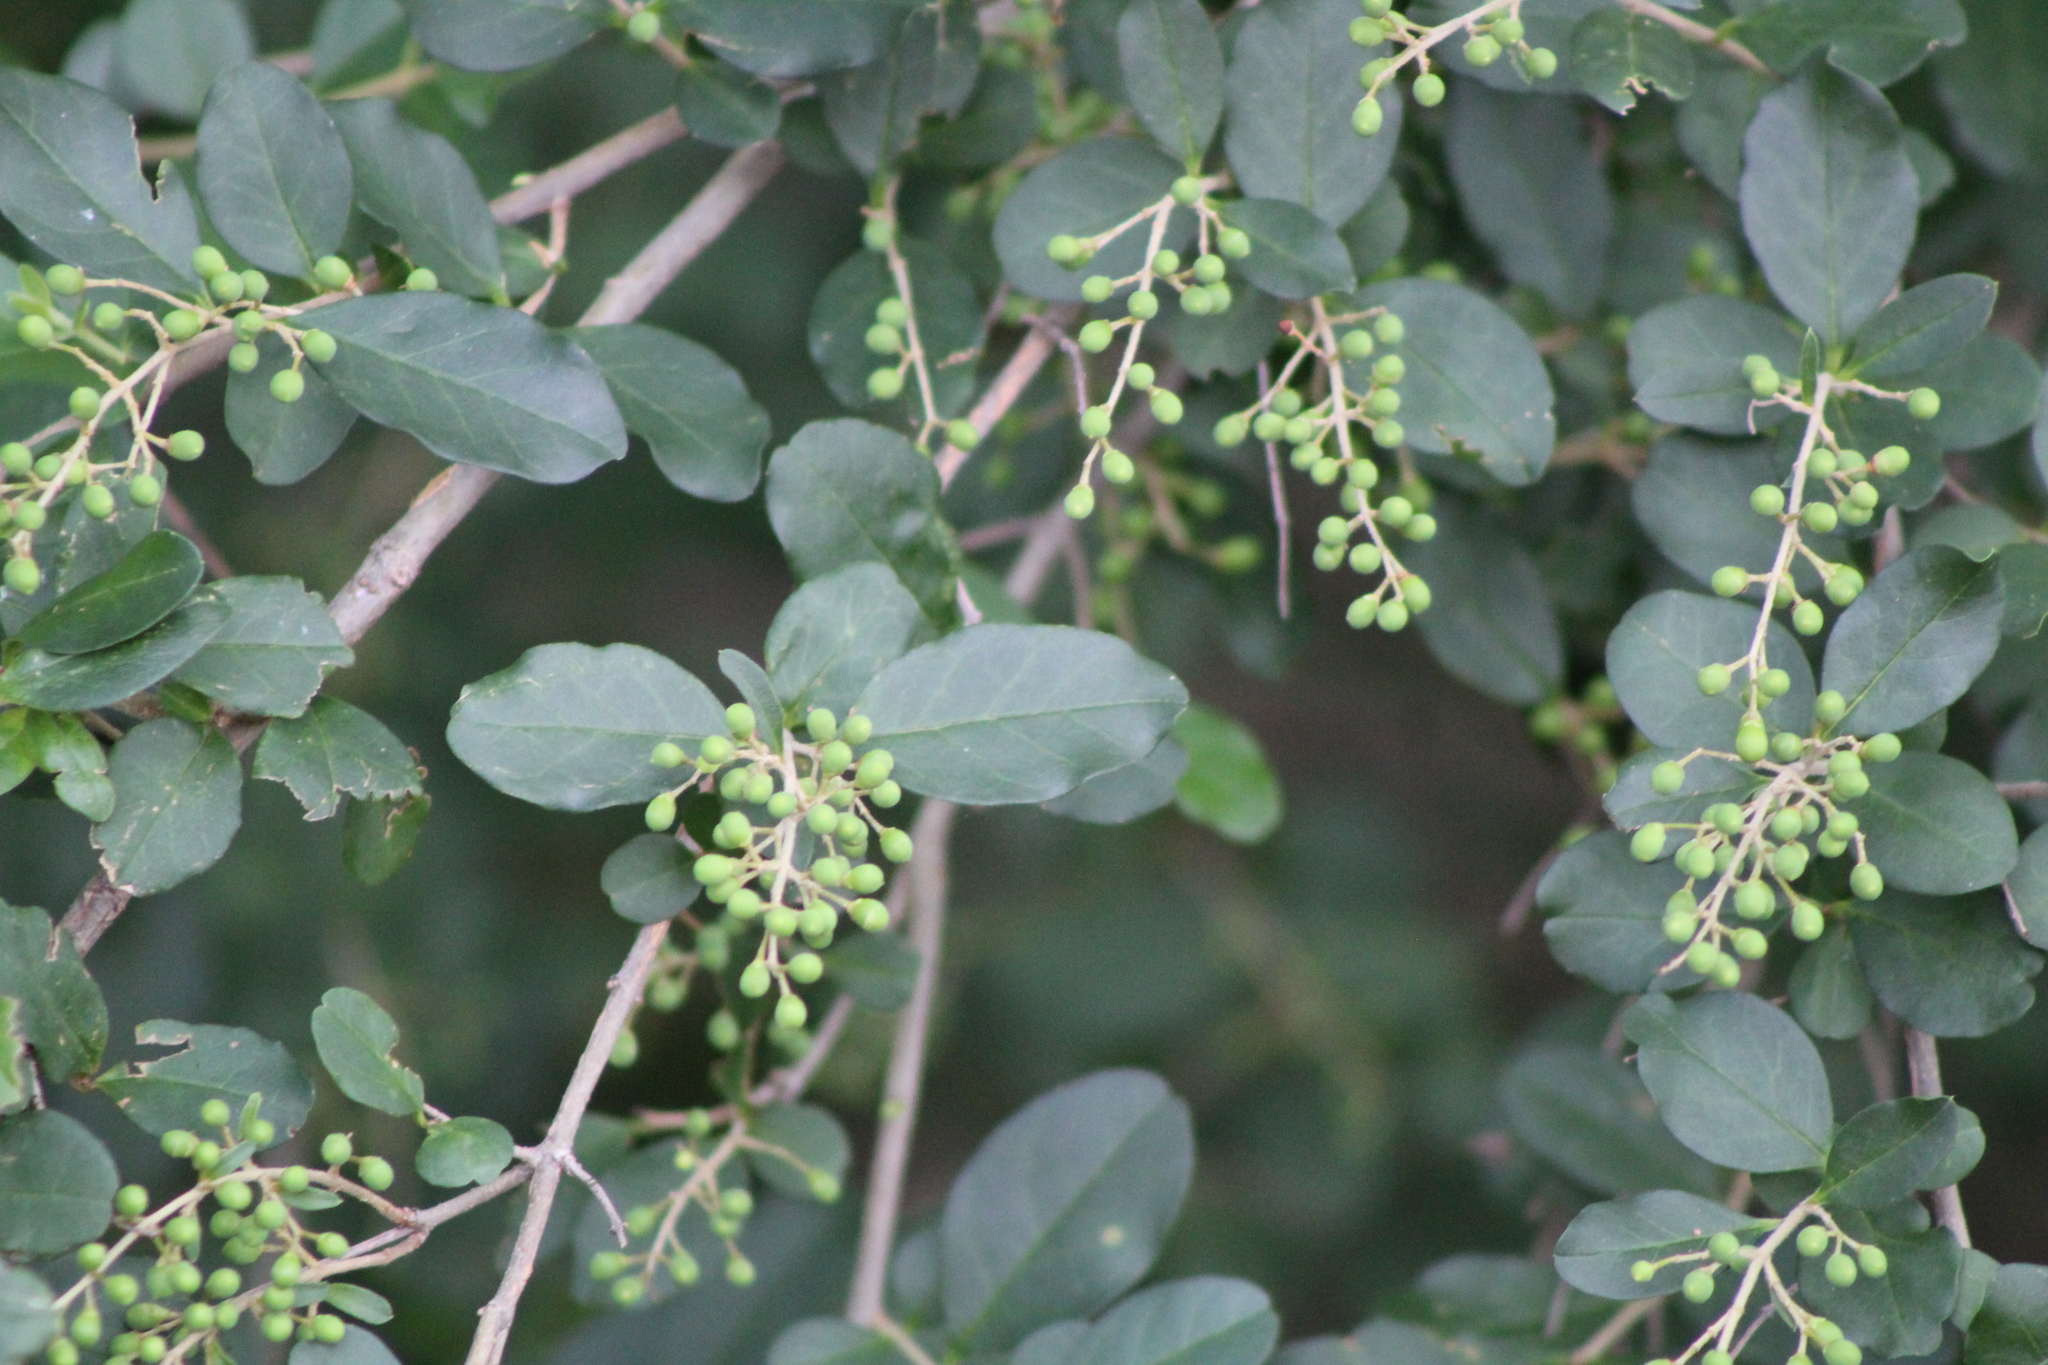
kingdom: Plantae
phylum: Tracheophyta
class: Magnoliopsida
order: Lamiales
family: Oleaceae
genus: Ligustrum
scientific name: Ligustrum sinense
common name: Chinese privet
